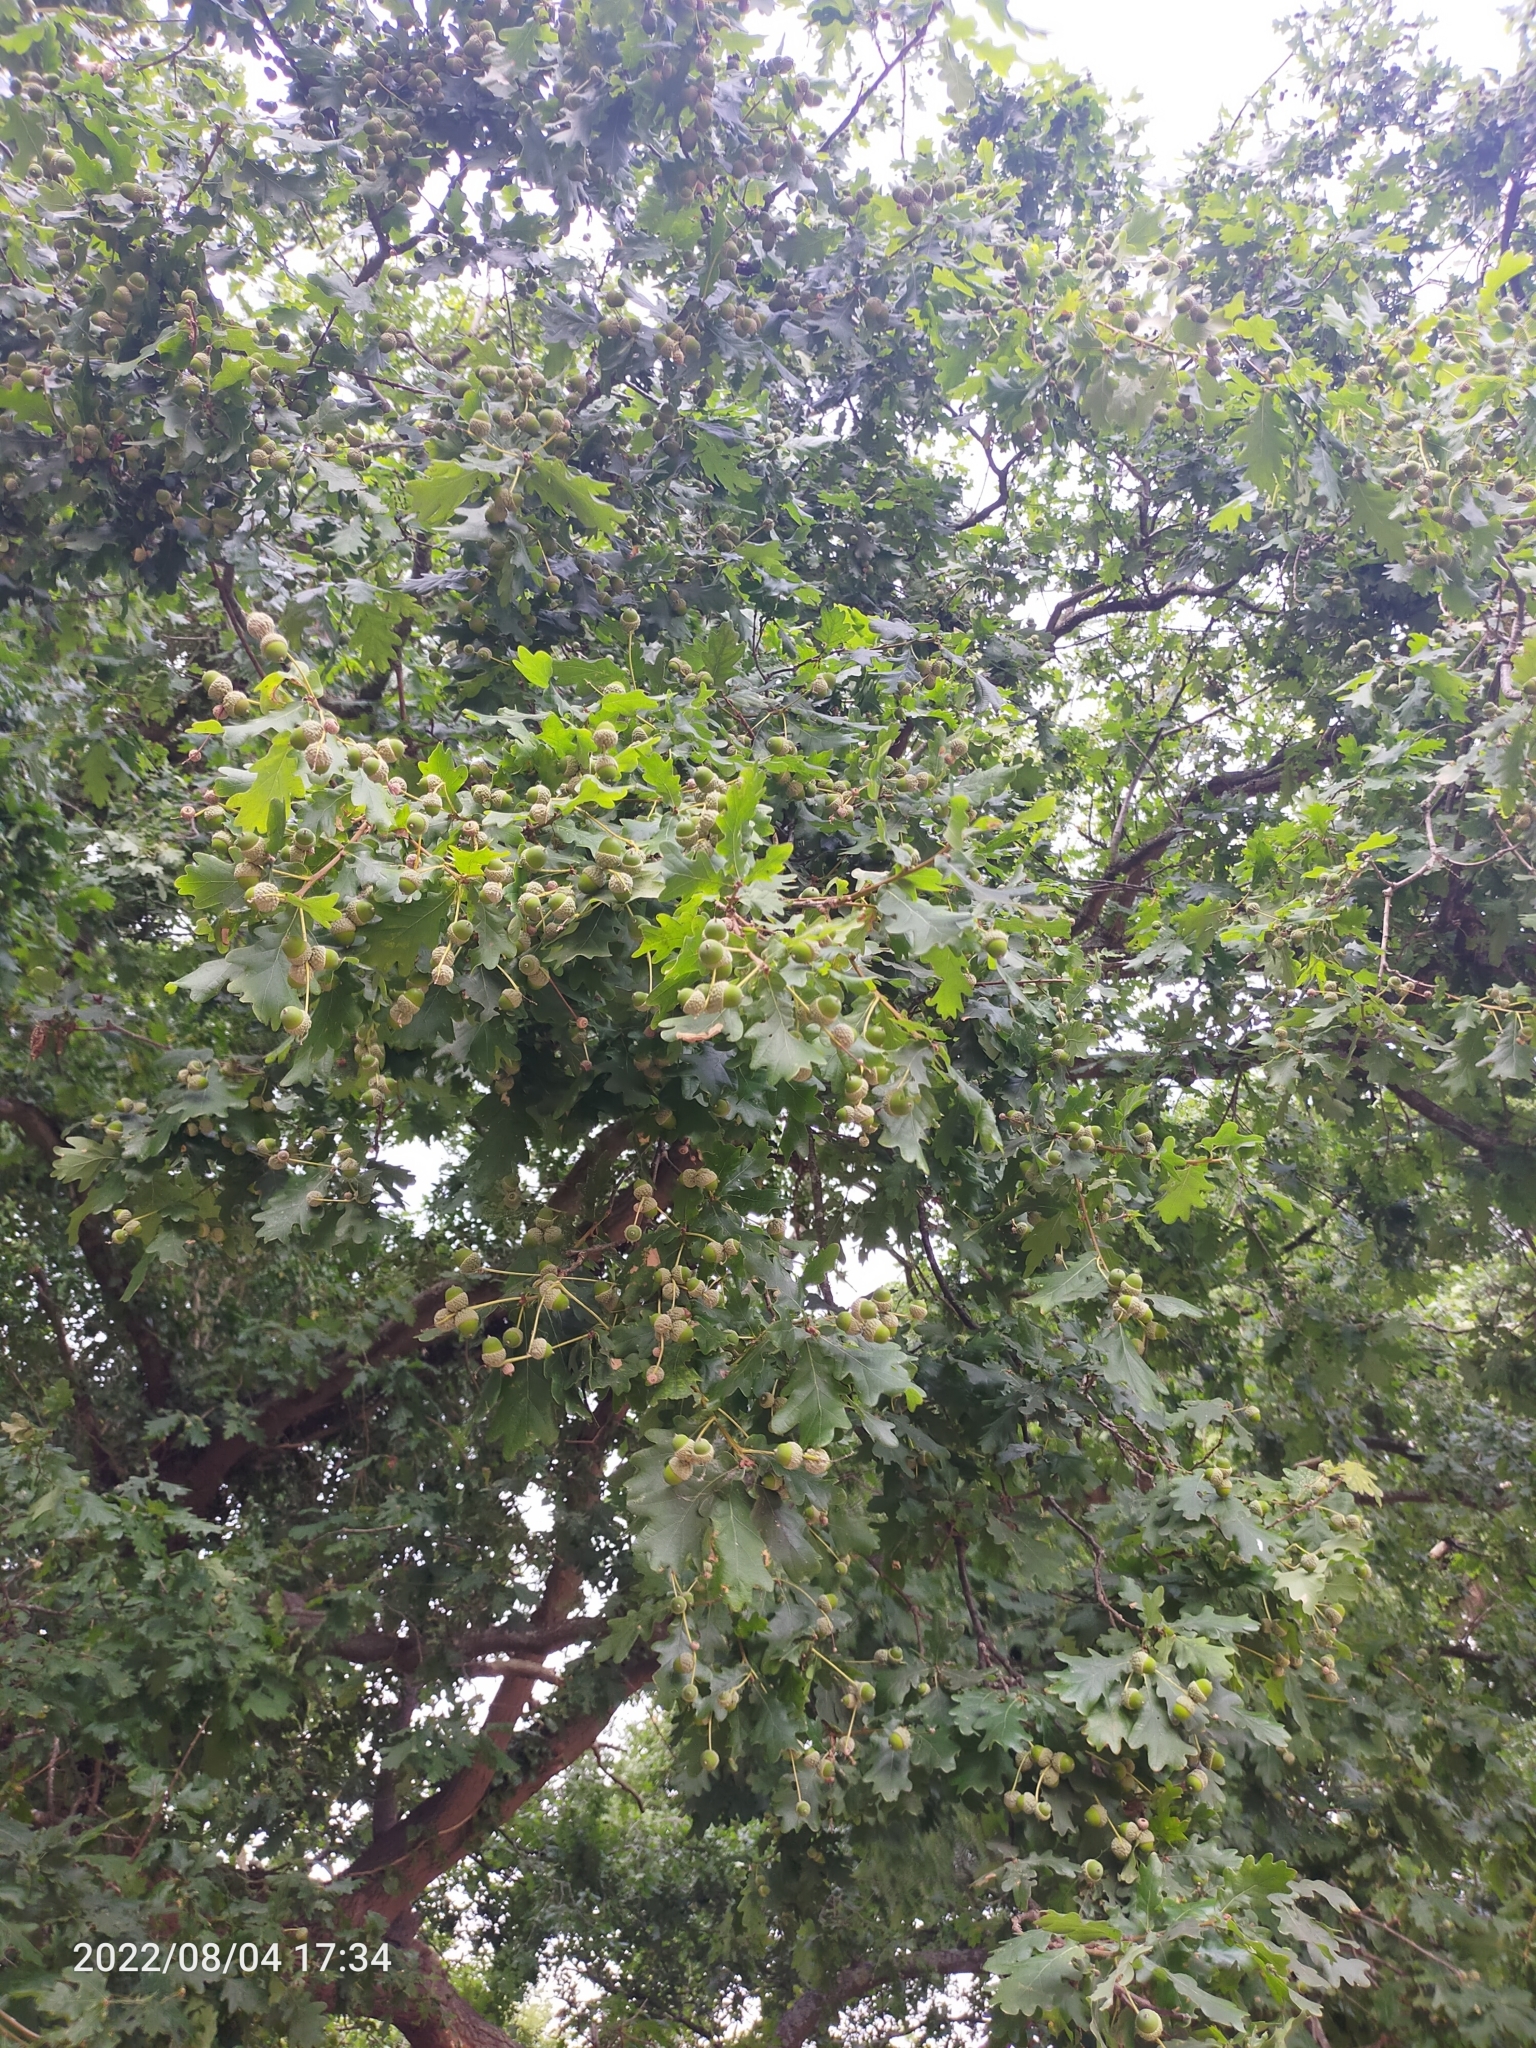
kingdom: Plantae
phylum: Tracheophyta
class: Magnoliopsida
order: Fagales
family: Fagaceae
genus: Quercus
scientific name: Quercus robur
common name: Pedunculate oak
